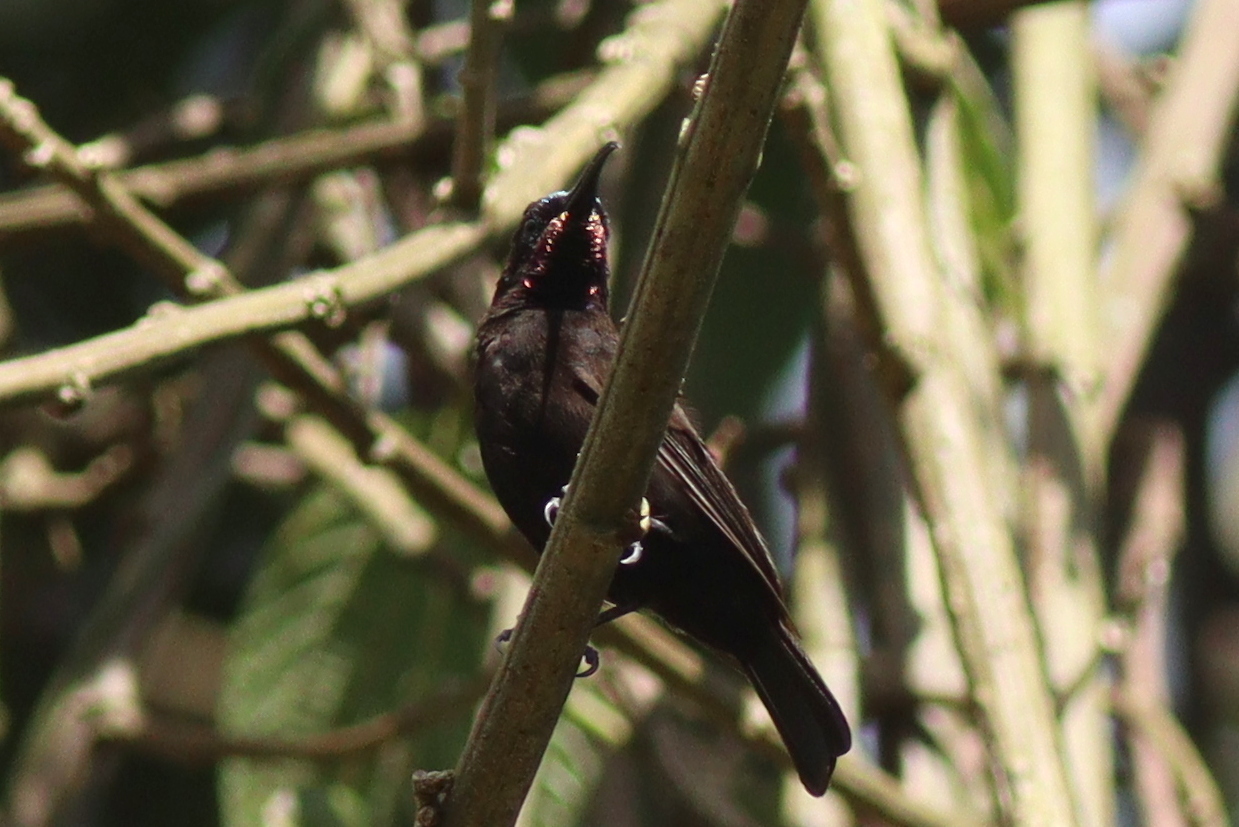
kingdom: Animalia
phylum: Chordata
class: Aves
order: Passeriformes
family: Nectariniidae
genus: Chalcomitra
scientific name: Chalcomitra amethystina
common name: Amethyst sunbird
